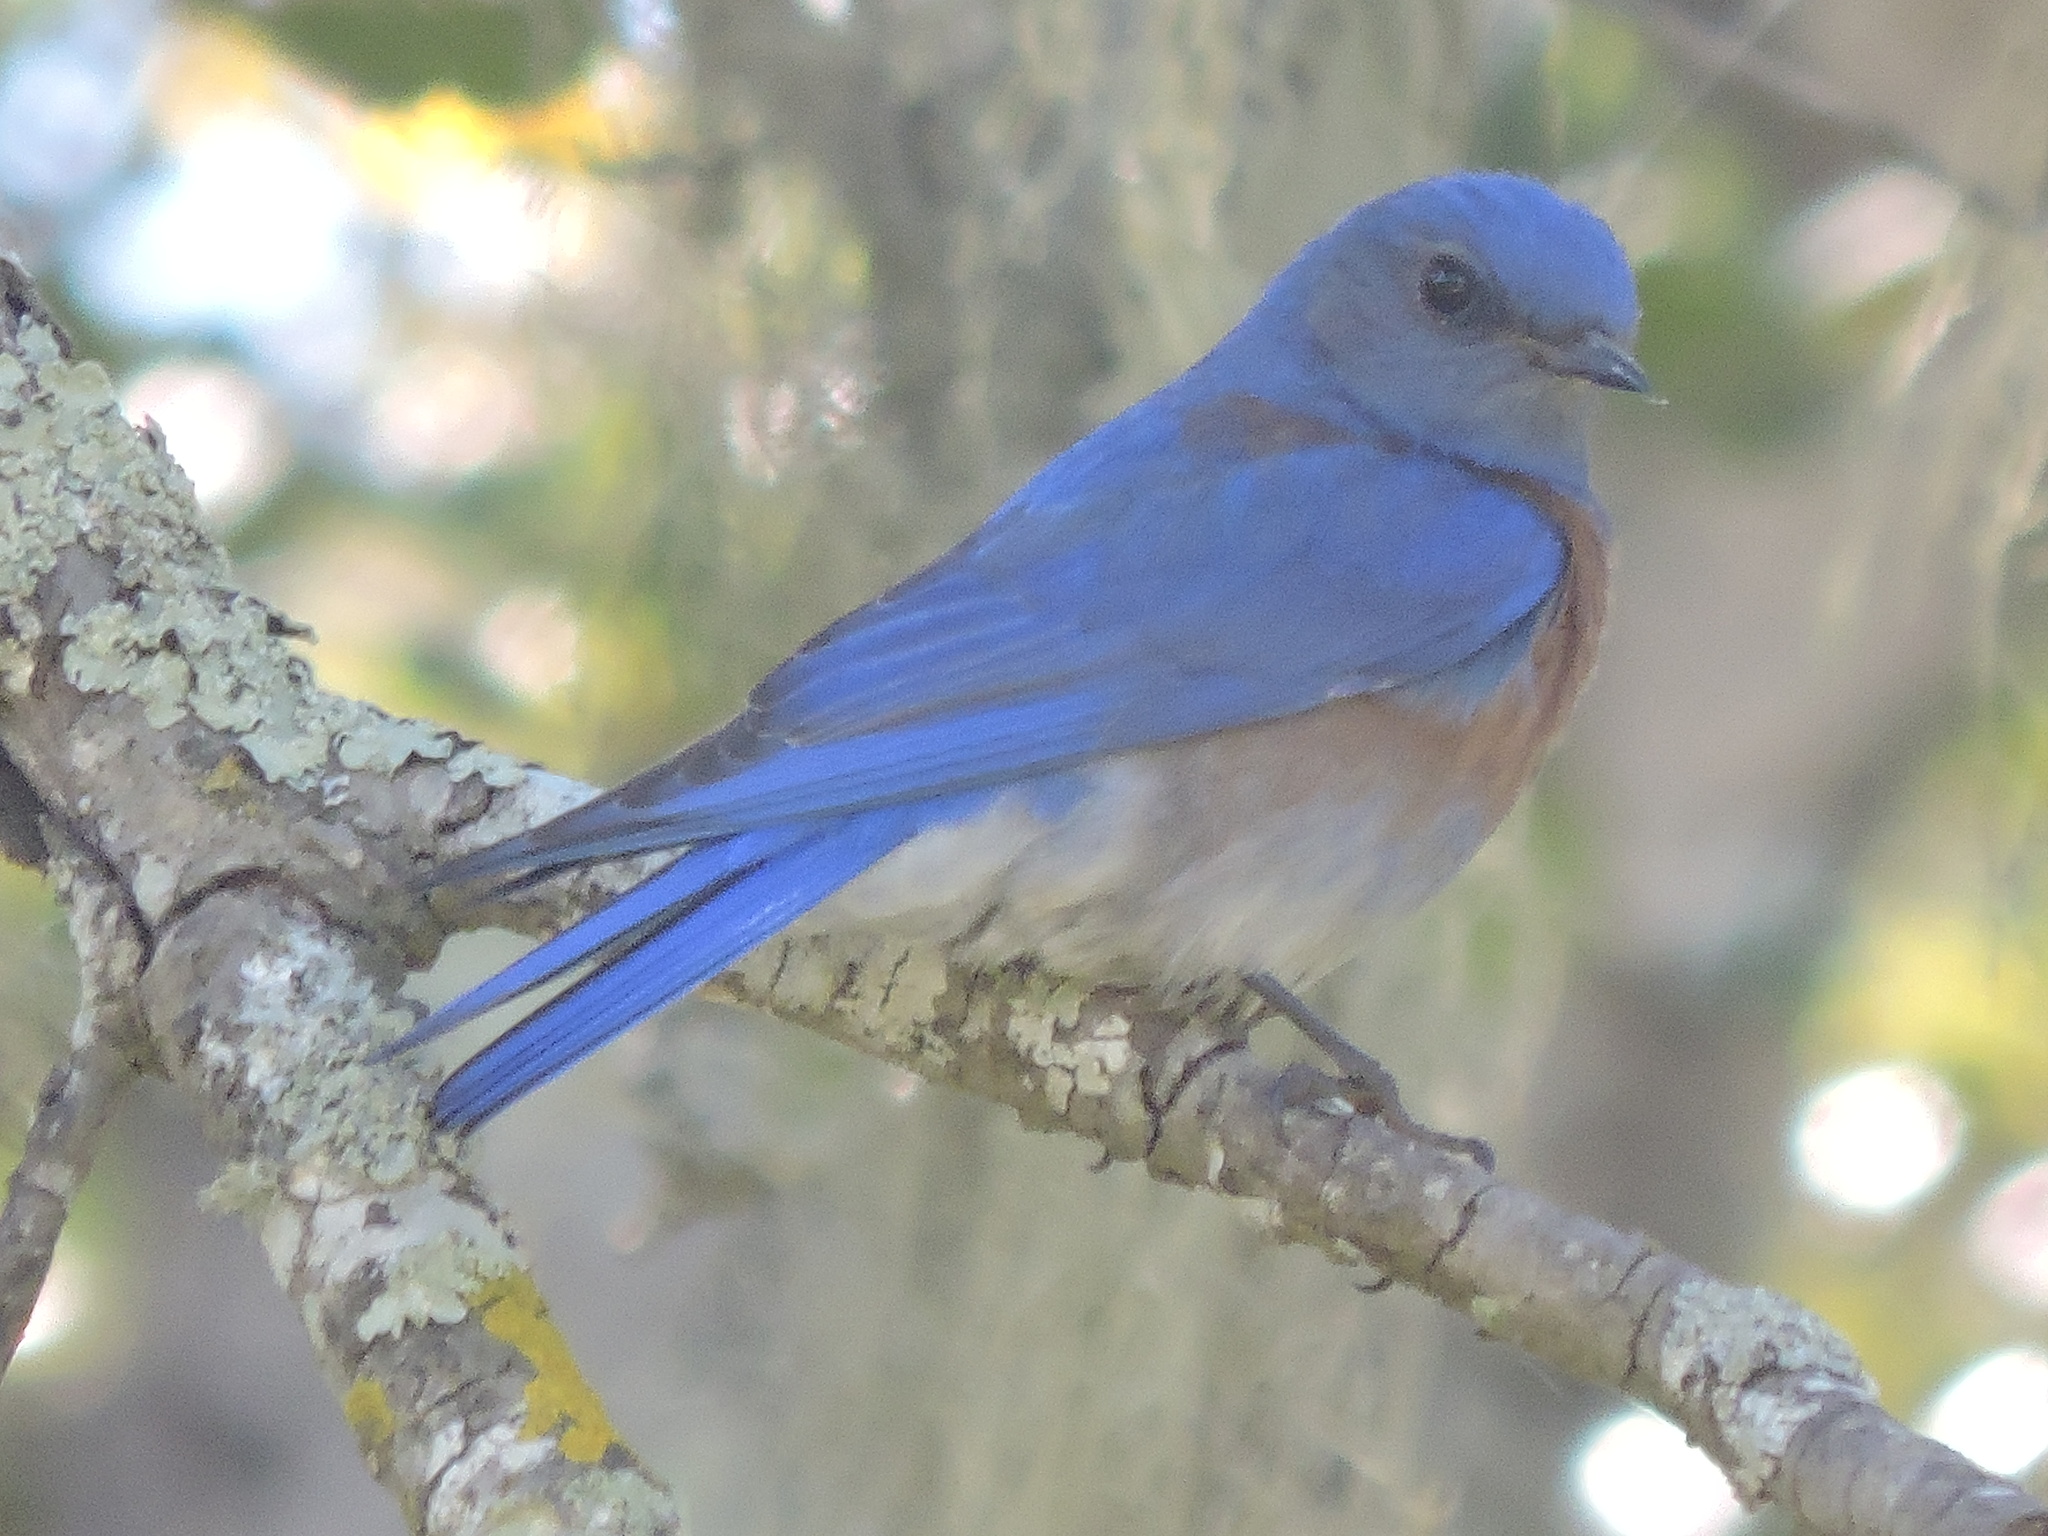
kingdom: Animalia
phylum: Chordata
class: Aves
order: Passeriformes
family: Turdidae
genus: Sialia
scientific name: Sialia mexicana
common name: Western bluebird
